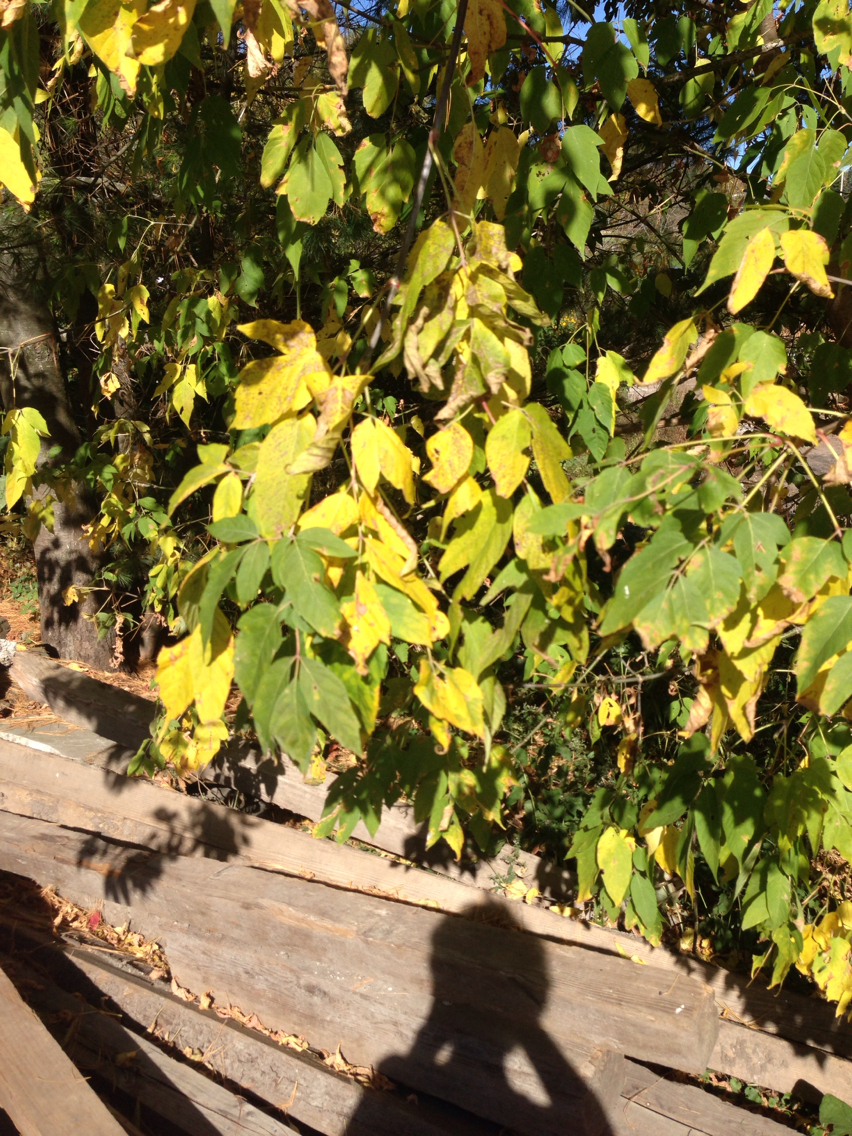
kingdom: Plantae
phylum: Tracheophyta
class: Magnoliopsida
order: Sapindales
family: Sapindaceae
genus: Acer
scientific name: Acer negundo
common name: Ashleaf maple
